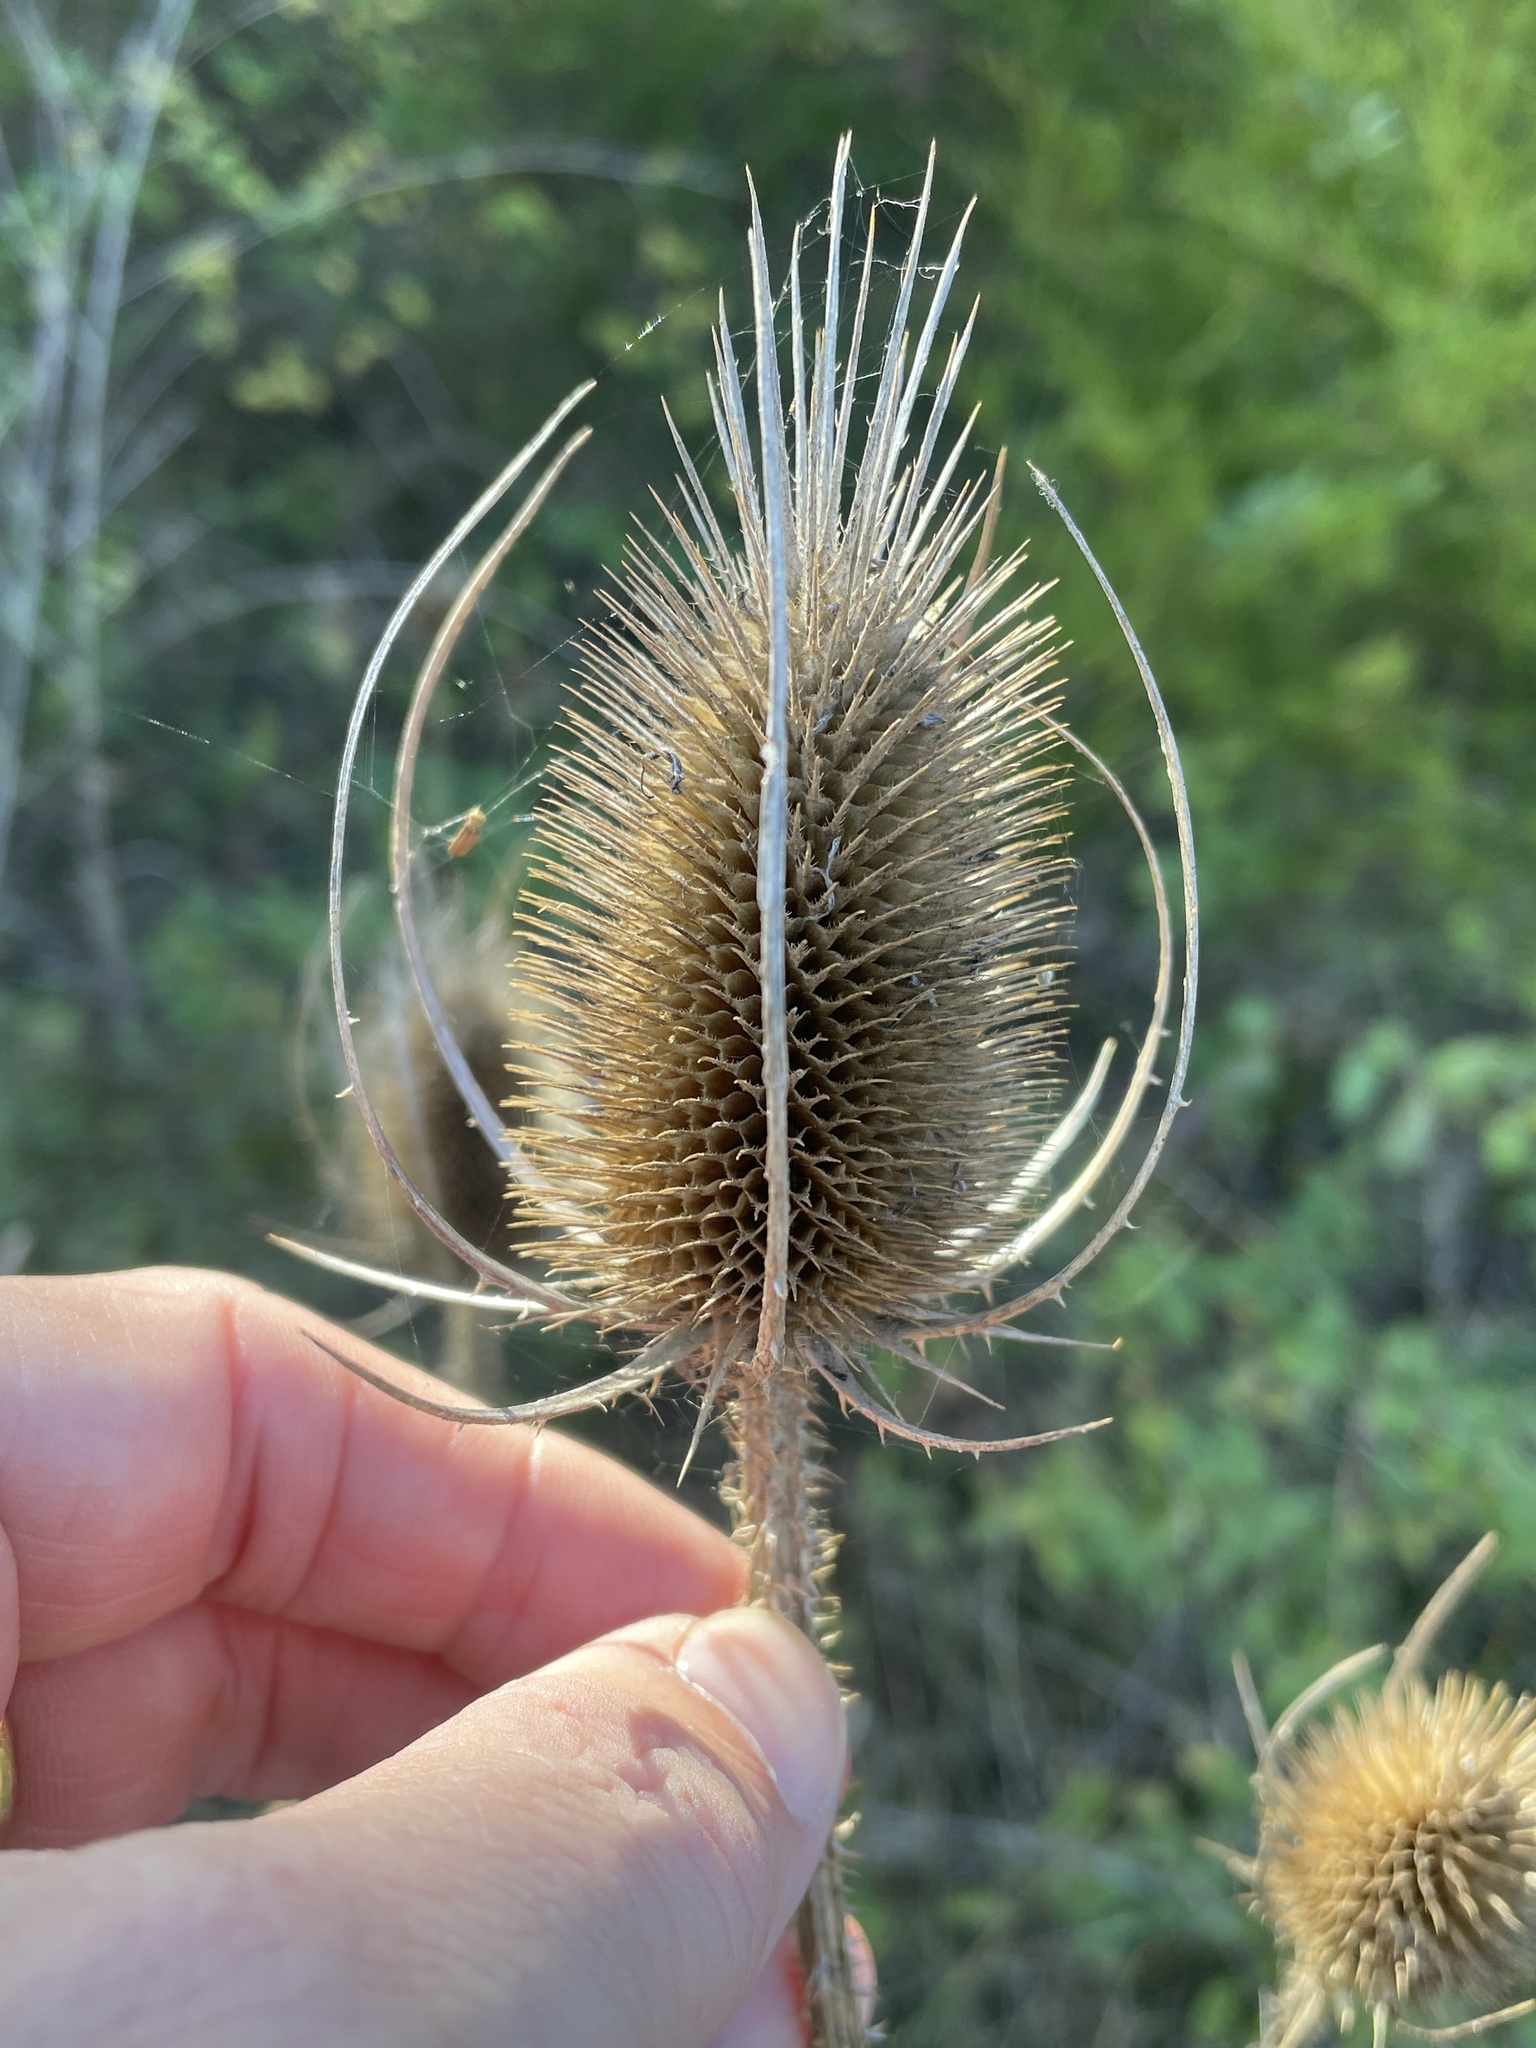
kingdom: Plantae
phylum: Tracheophyta
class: Magnoliopsida
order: Dipsacales
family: Caprifoliaceae
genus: Dipsacus
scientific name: Dipsacus fullonum
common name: Teasel
